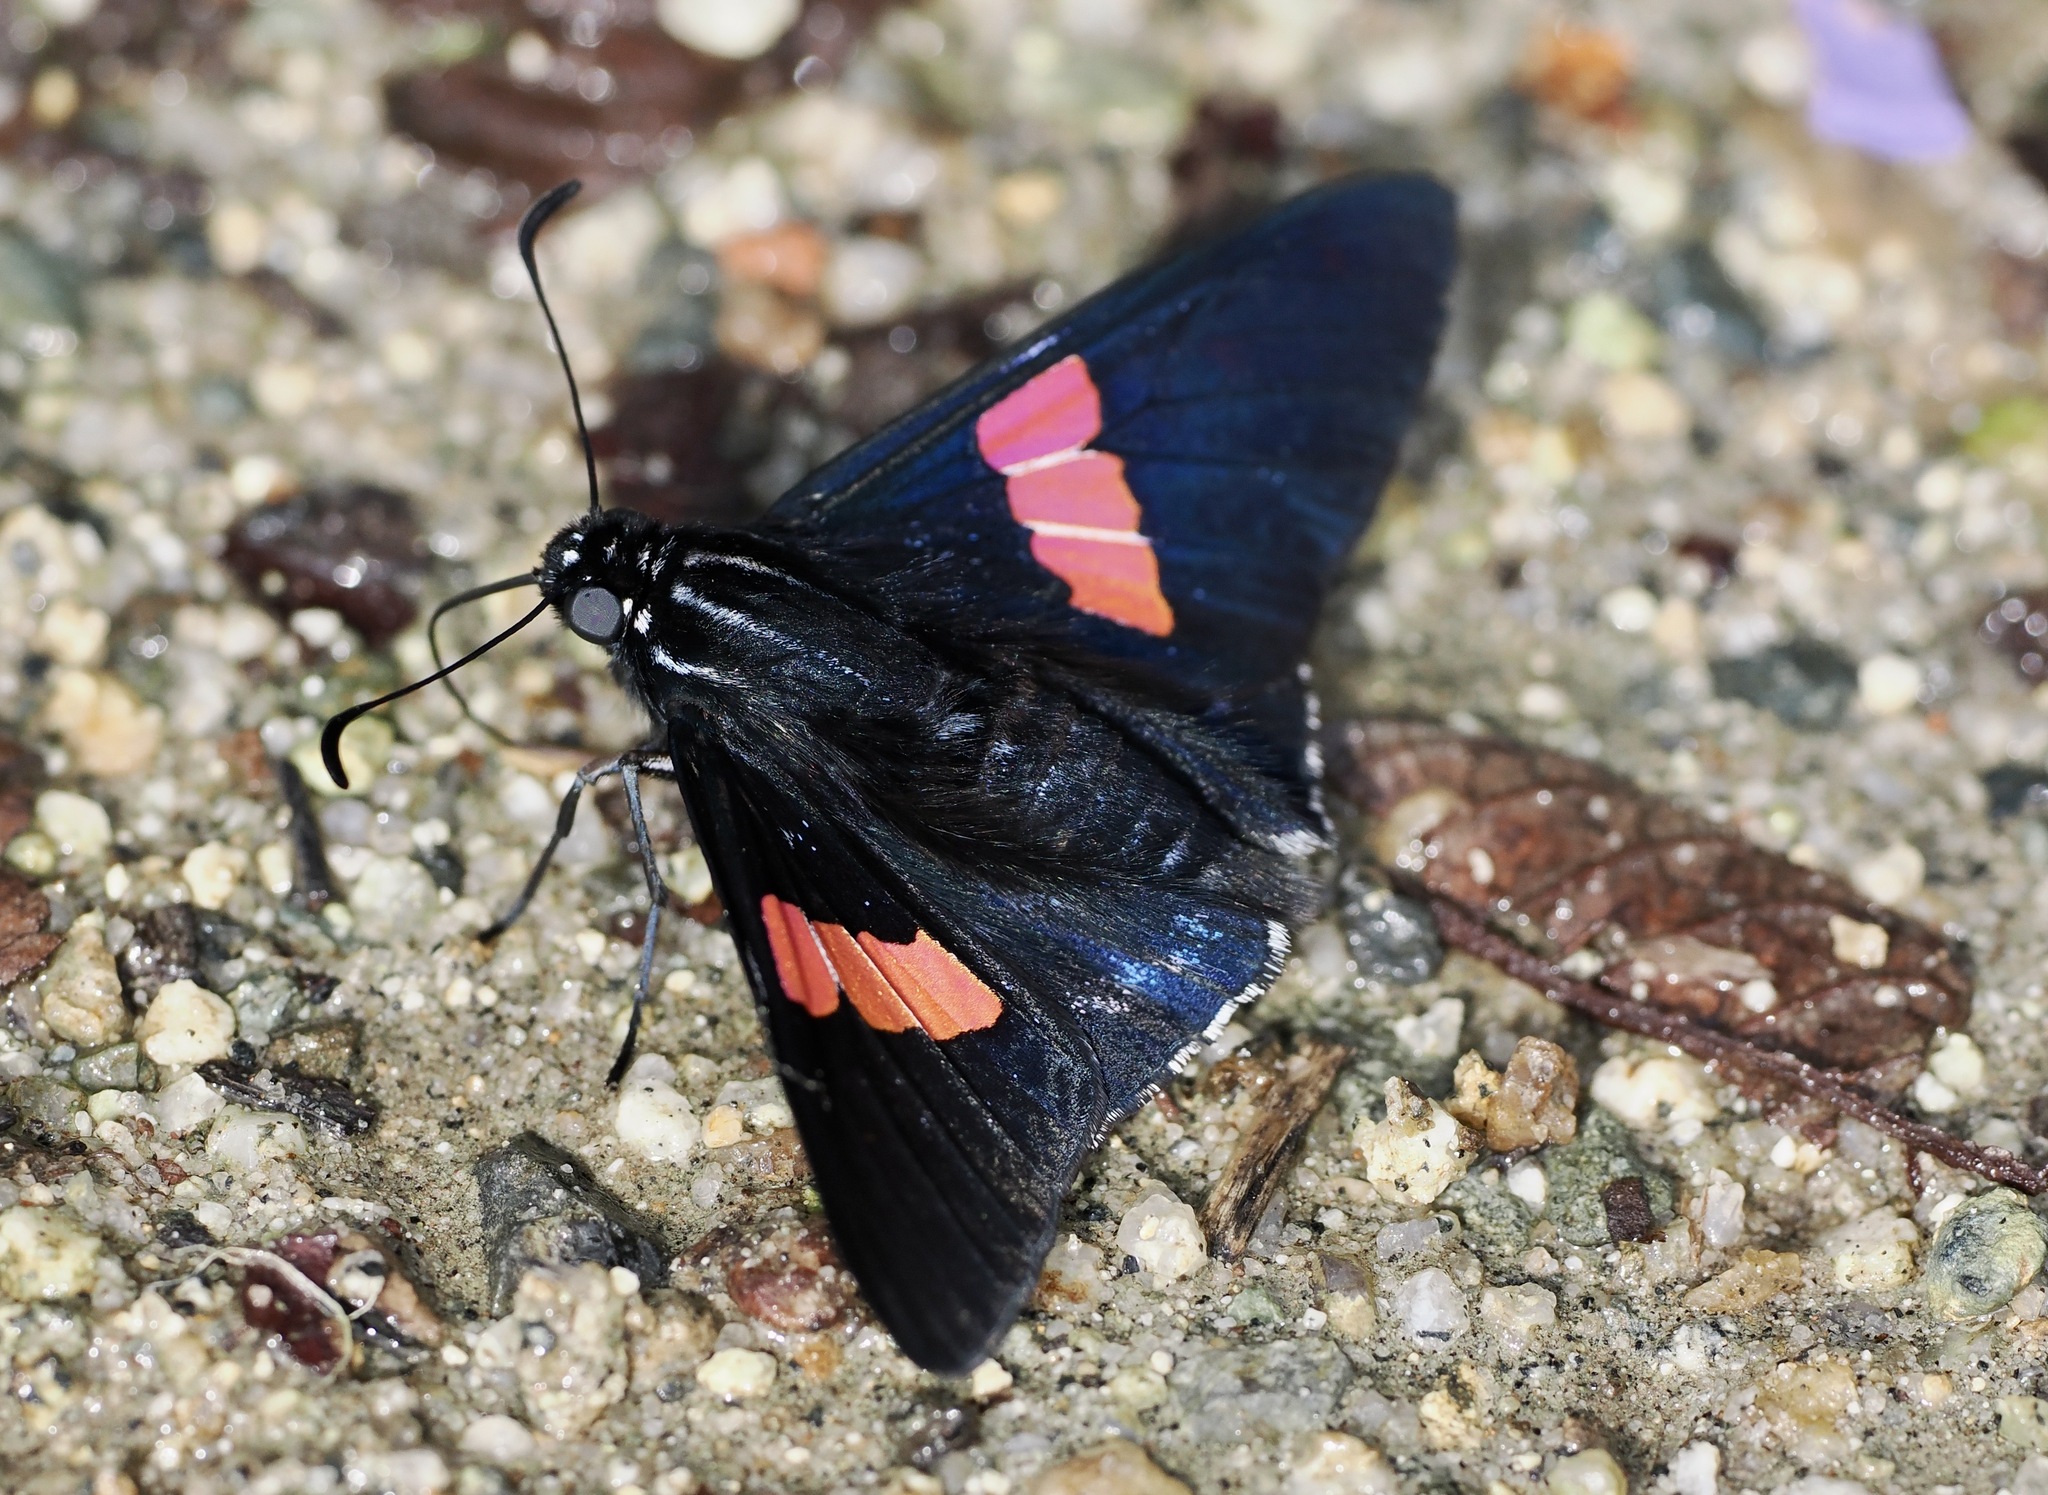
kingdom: Animalia
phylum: Arthropoda
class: Insecta
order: Lepidoptera
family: Hesperiidae
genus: Mimoniades
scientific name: Mimoniades nurscia
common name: Nursica skipper
